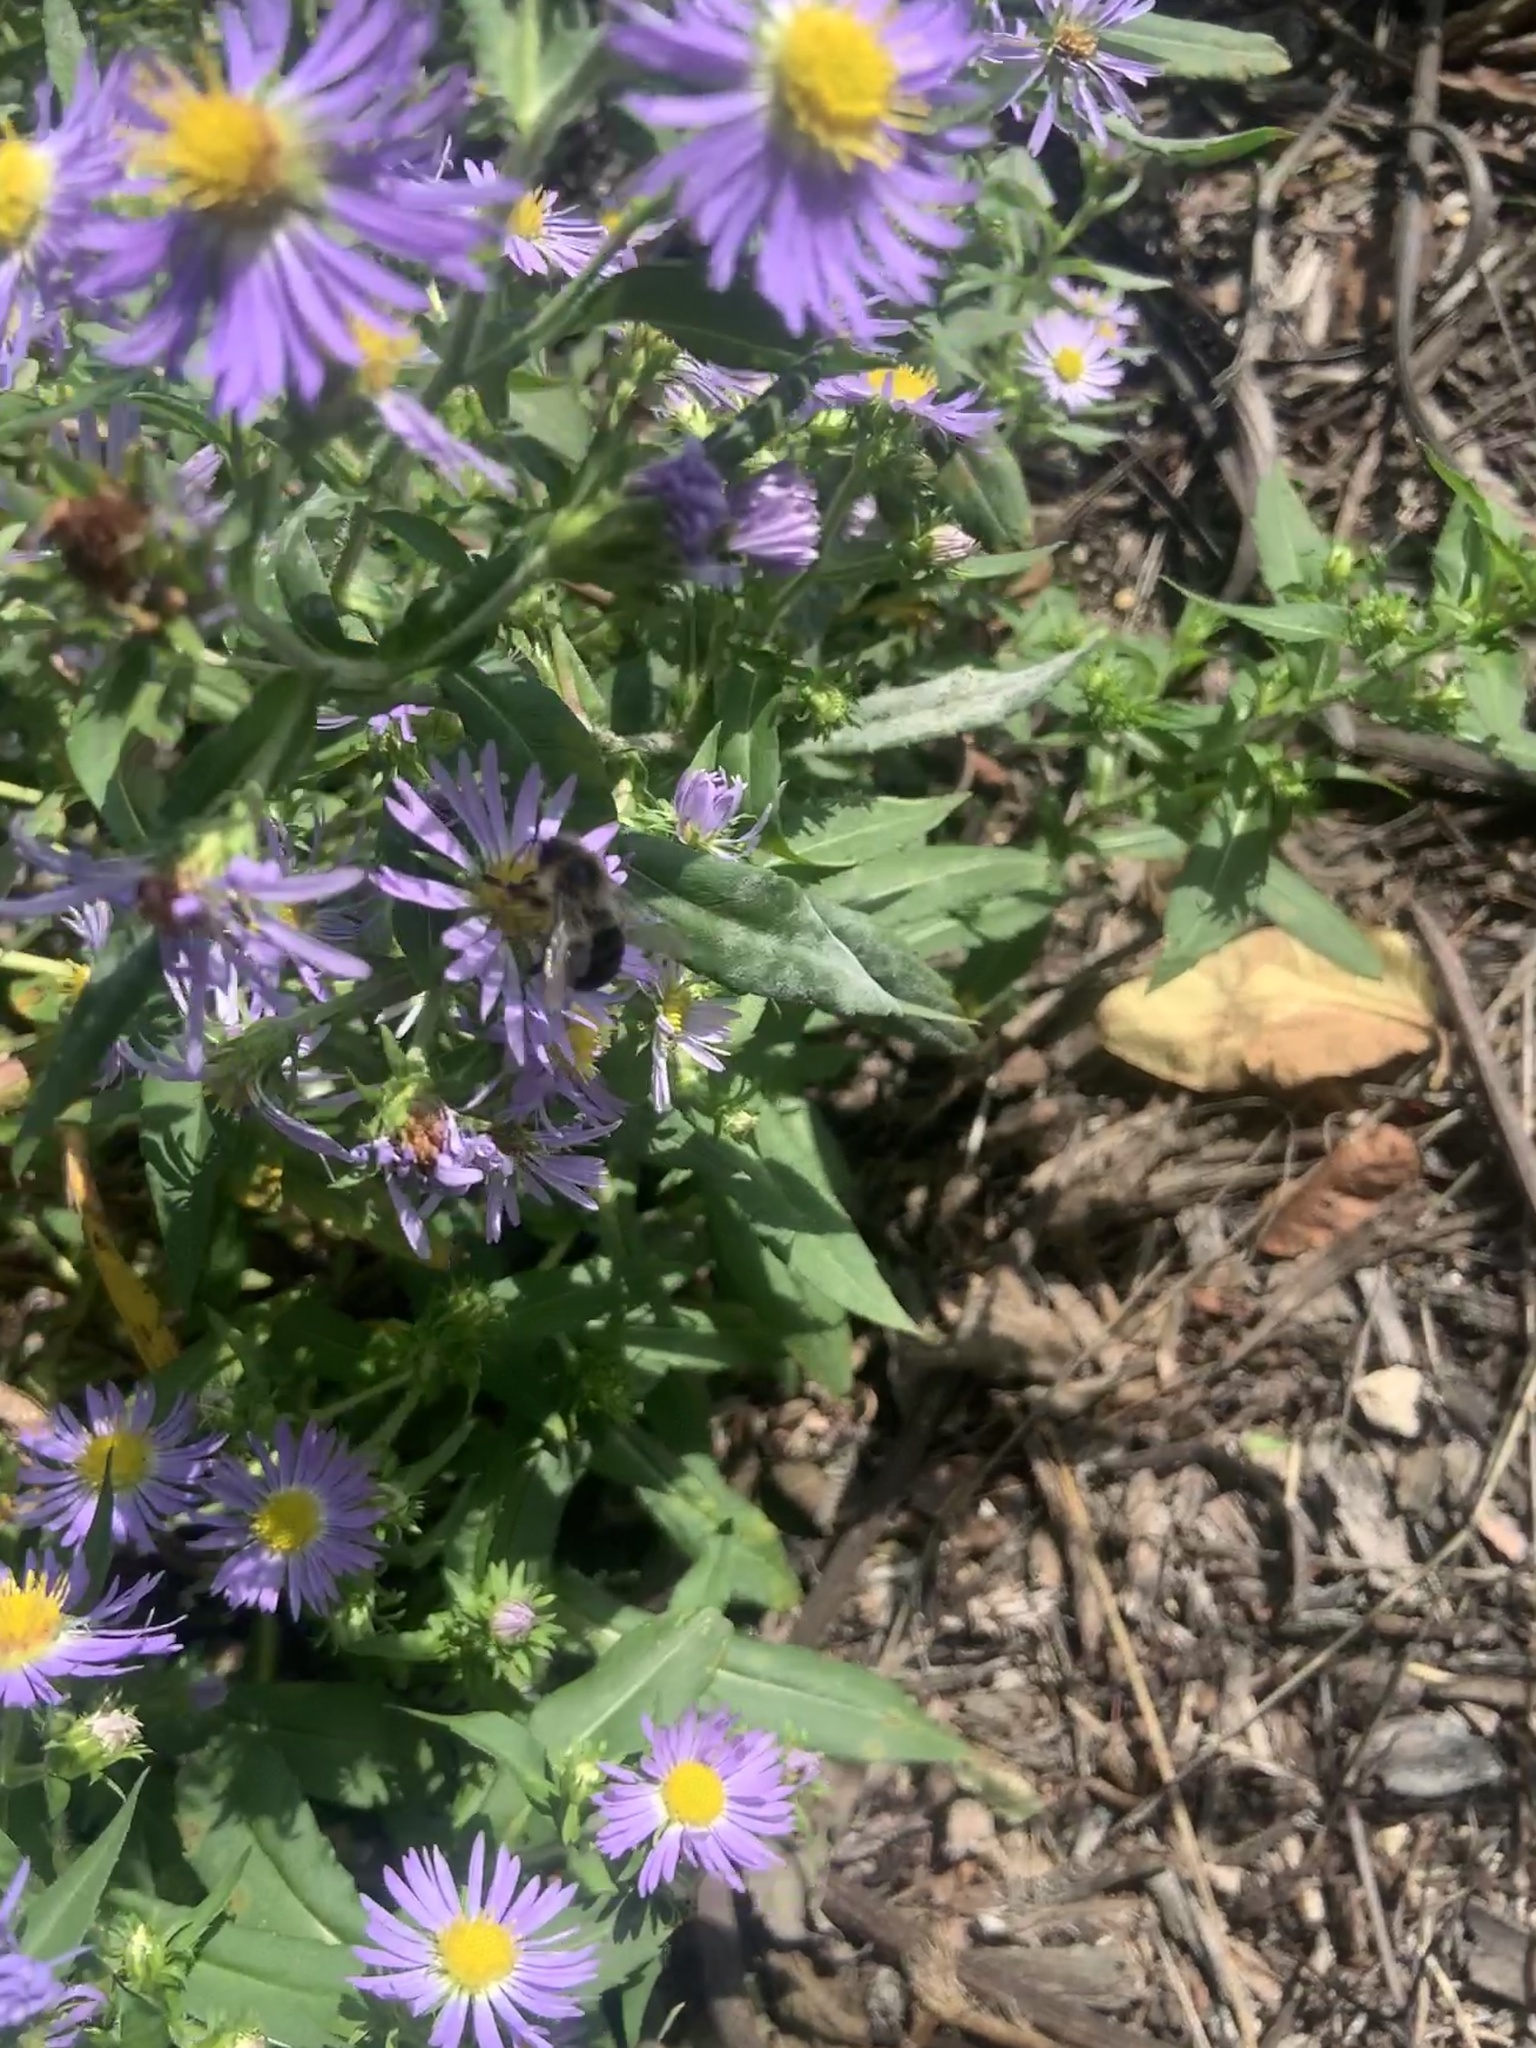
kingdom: Animalia
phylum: Arthropoda
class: Insecta
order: Hymenoptera
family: Apidae
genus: Bombus
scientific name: Bombus impatiens
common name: Common eastern bumble bee
